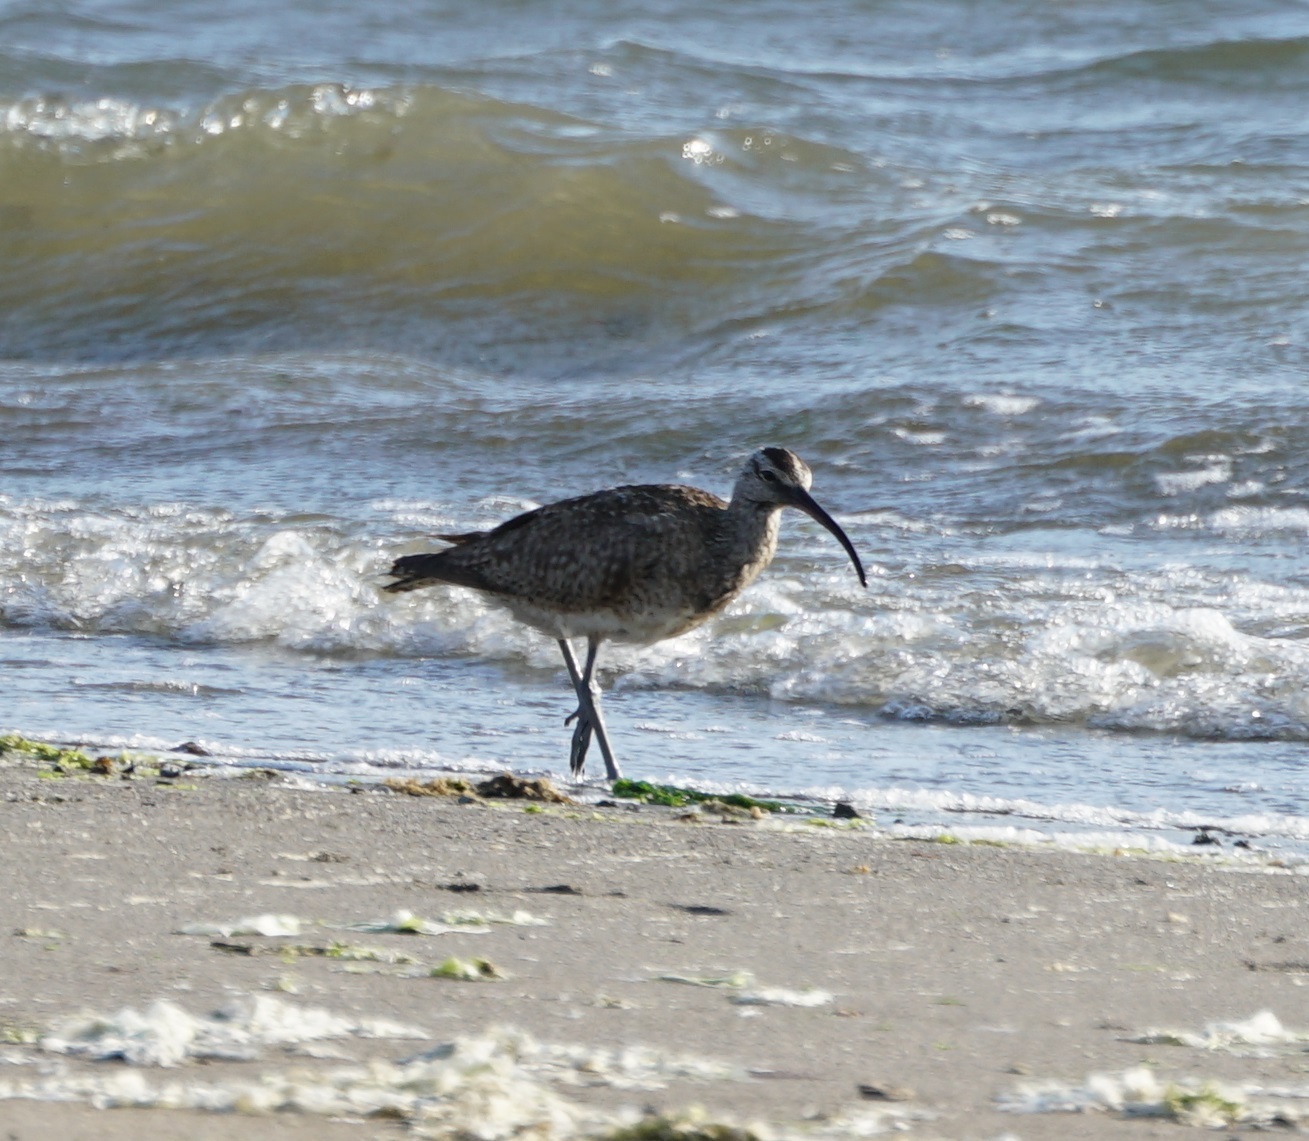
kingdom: Animalia
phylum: Chordata
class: Aves
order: Charadriiformes
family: Scolopacidae
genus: Numenius
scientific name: Numenius phaeopus
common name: Whimbrel
